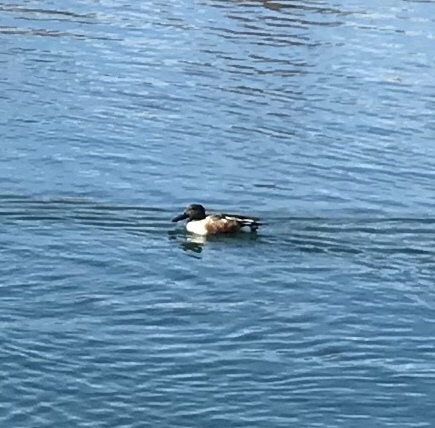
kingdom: Animalia
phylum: Chordata
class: Aves
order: Anseriformes
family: Anatidae
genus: Spatula
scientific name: Spatula clypeata
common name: Northern shoveler
